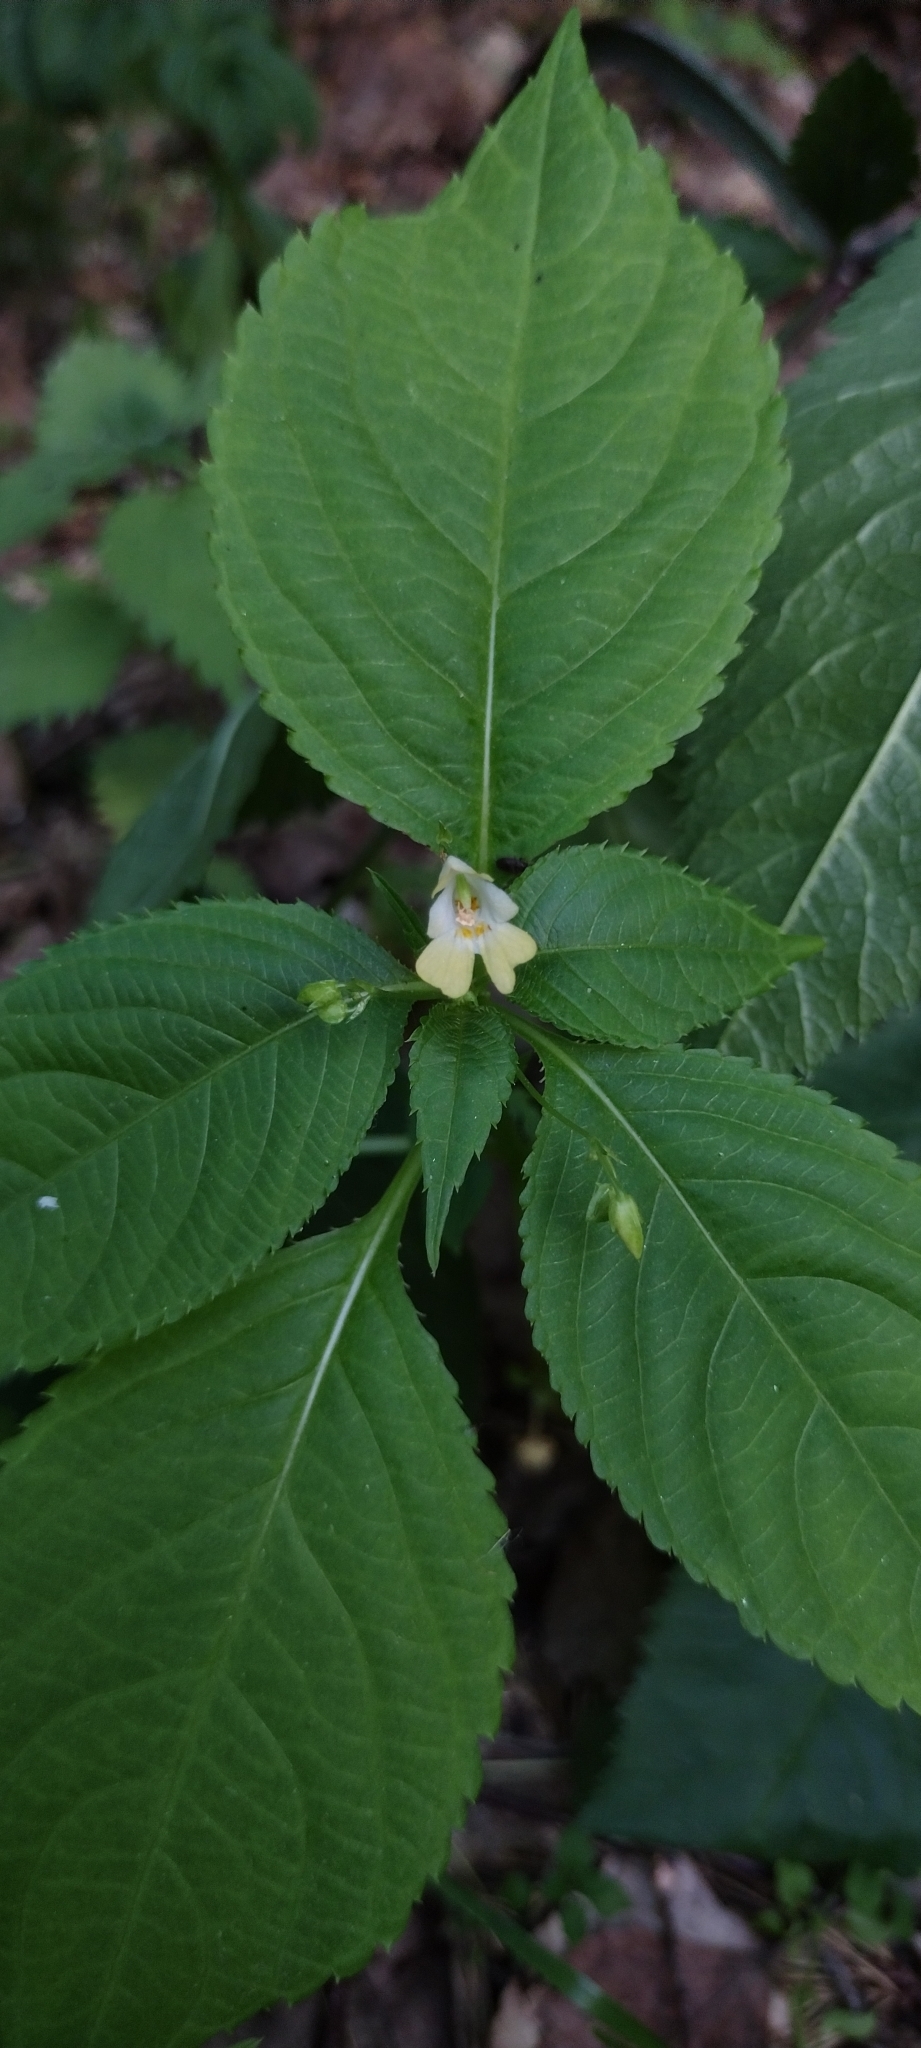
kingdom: Plantae
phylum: Tracheophyta
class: Magnoliopsida
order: Ericales
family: Balsaminaceae
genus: Impatiens
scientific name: Impatiens parviflora
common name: Small balsam
